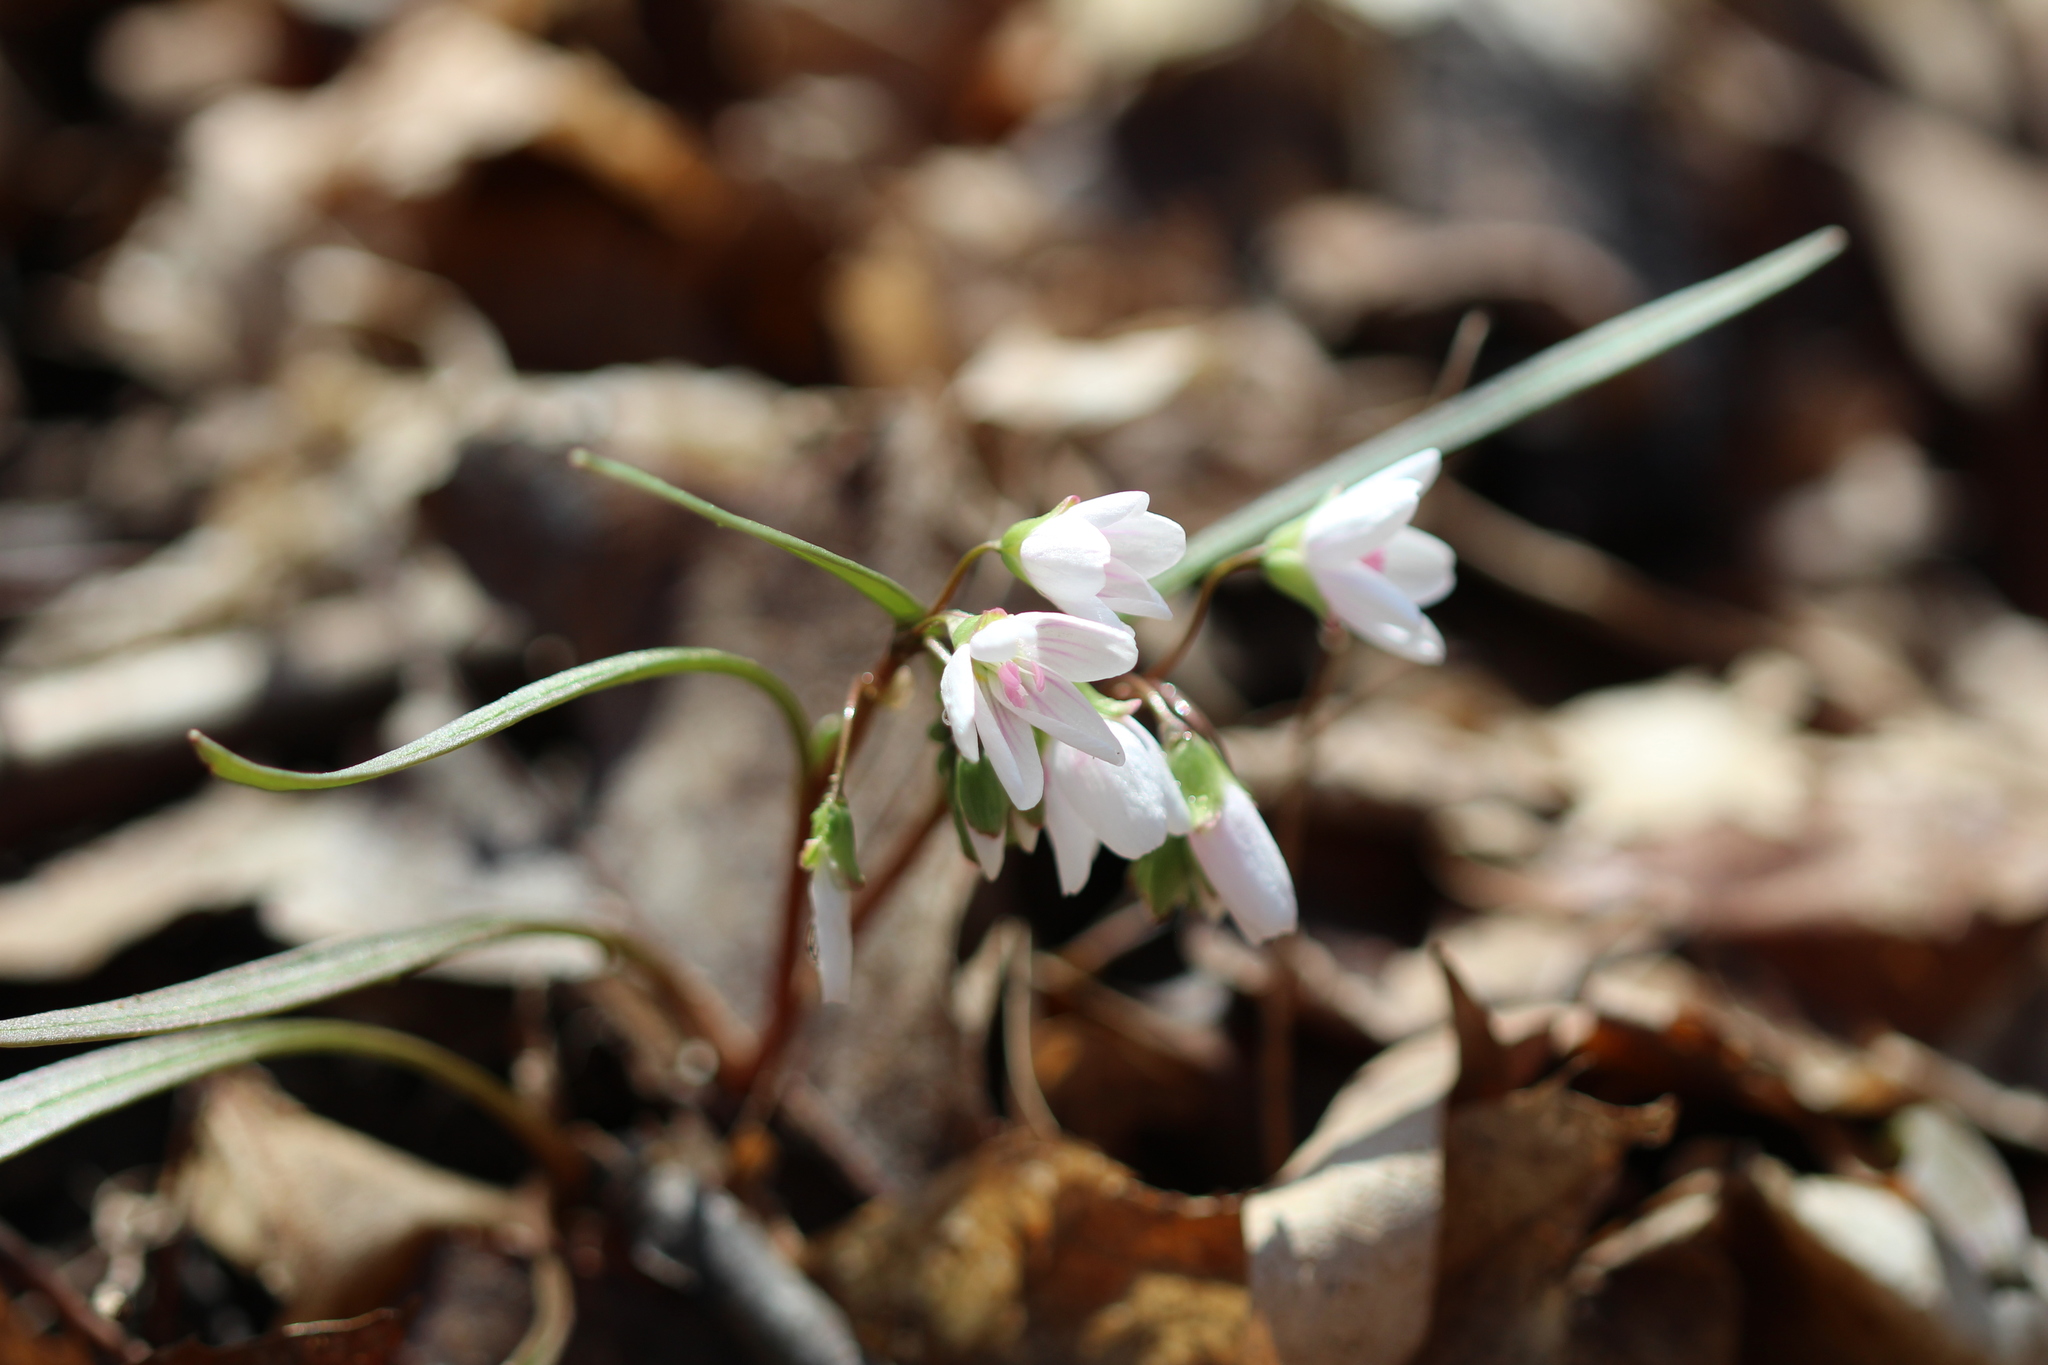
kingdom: Plantae
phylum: Tracheophyta
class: Magnoliopsida
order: Caryophyllales
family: Montiaceae
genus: Claytonia
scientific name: Claytonia virginica
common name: Virginia springbeauty
